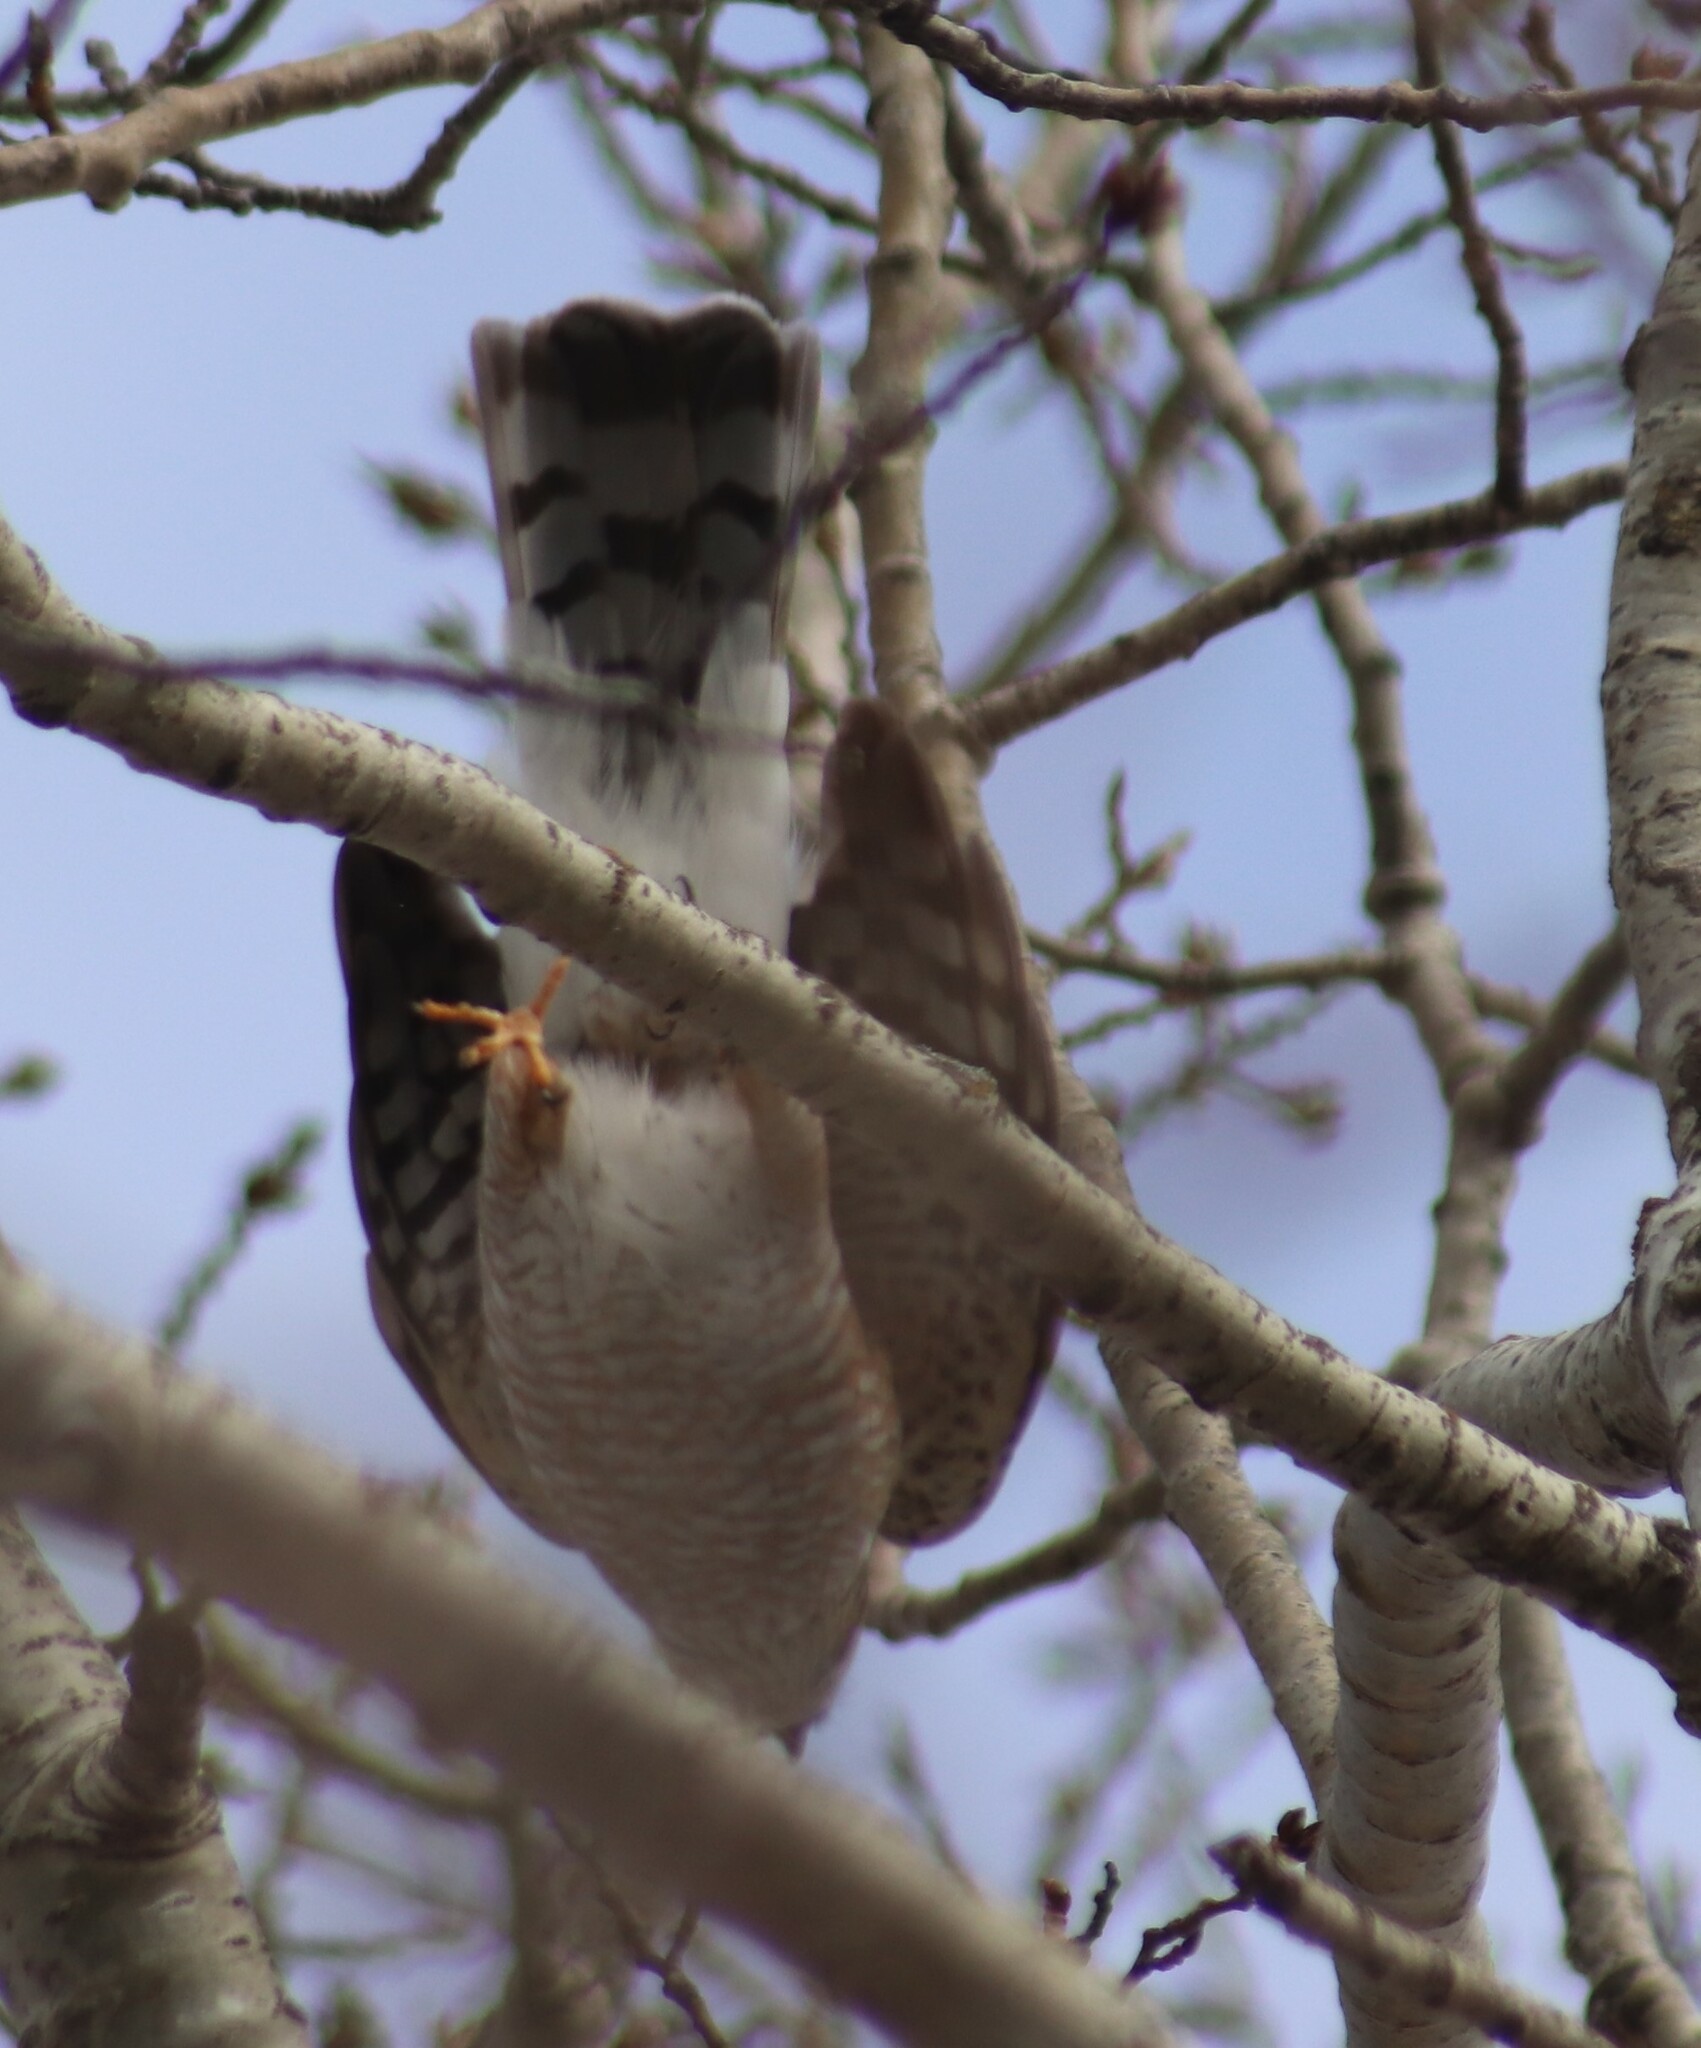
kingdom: Animalia
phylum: Chordata
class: Aves
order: Accipitriformes
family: Accipitridae
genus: Accipiter
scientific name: Accipiter striatus
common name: Sharp-shinned hawk
